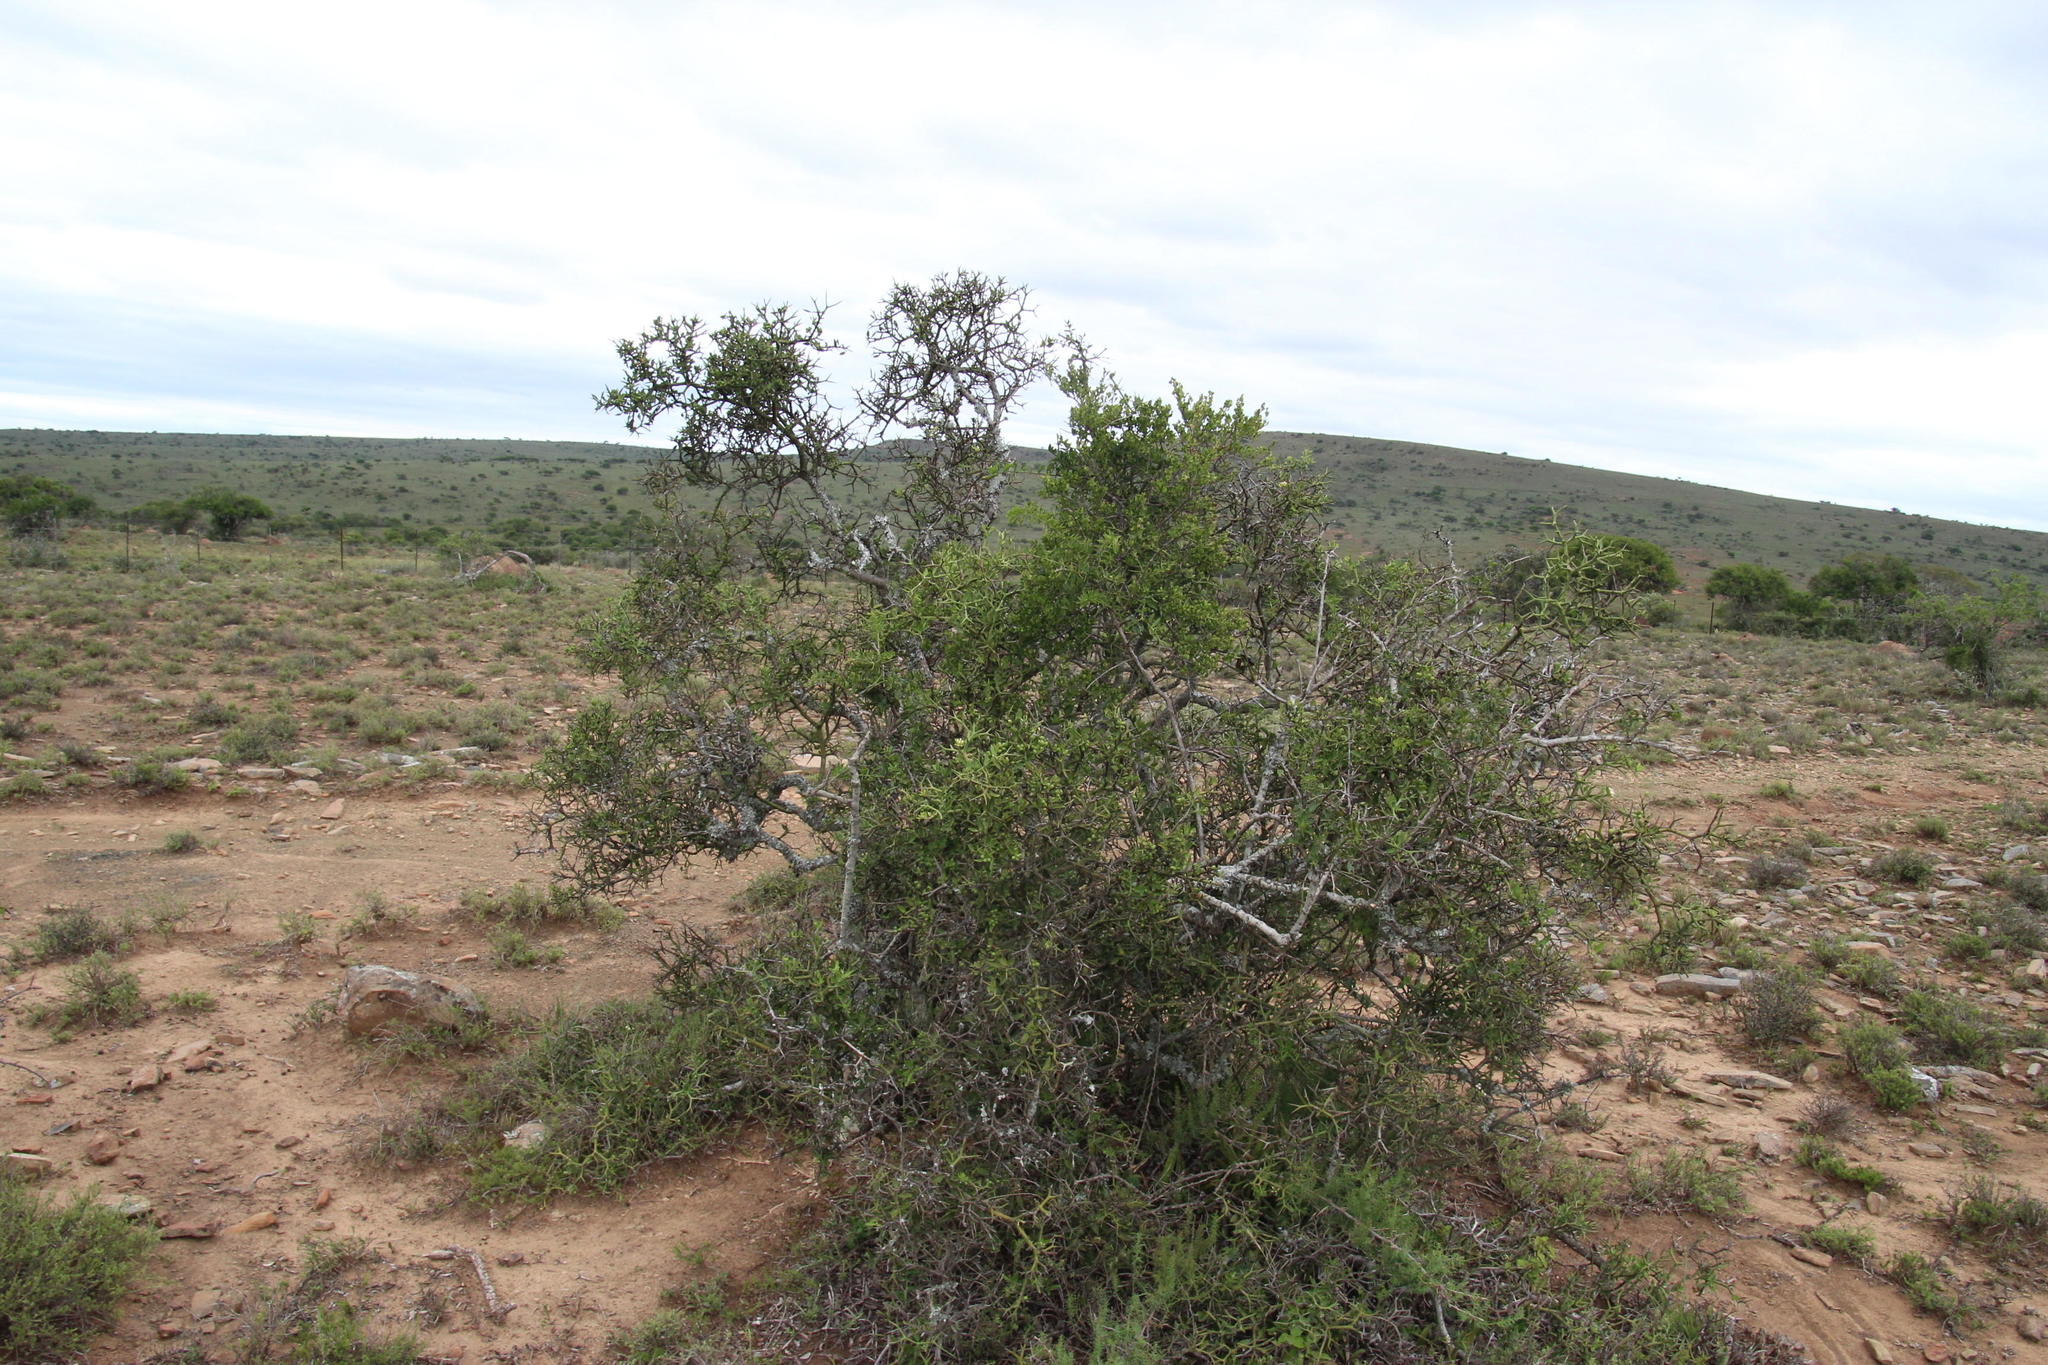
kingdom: Plantae
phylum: Tracheophyta
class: Magnoliopsida
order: Gentianales
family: Apocynaceae
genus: Carissa
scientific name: Carissa haematocarpa
